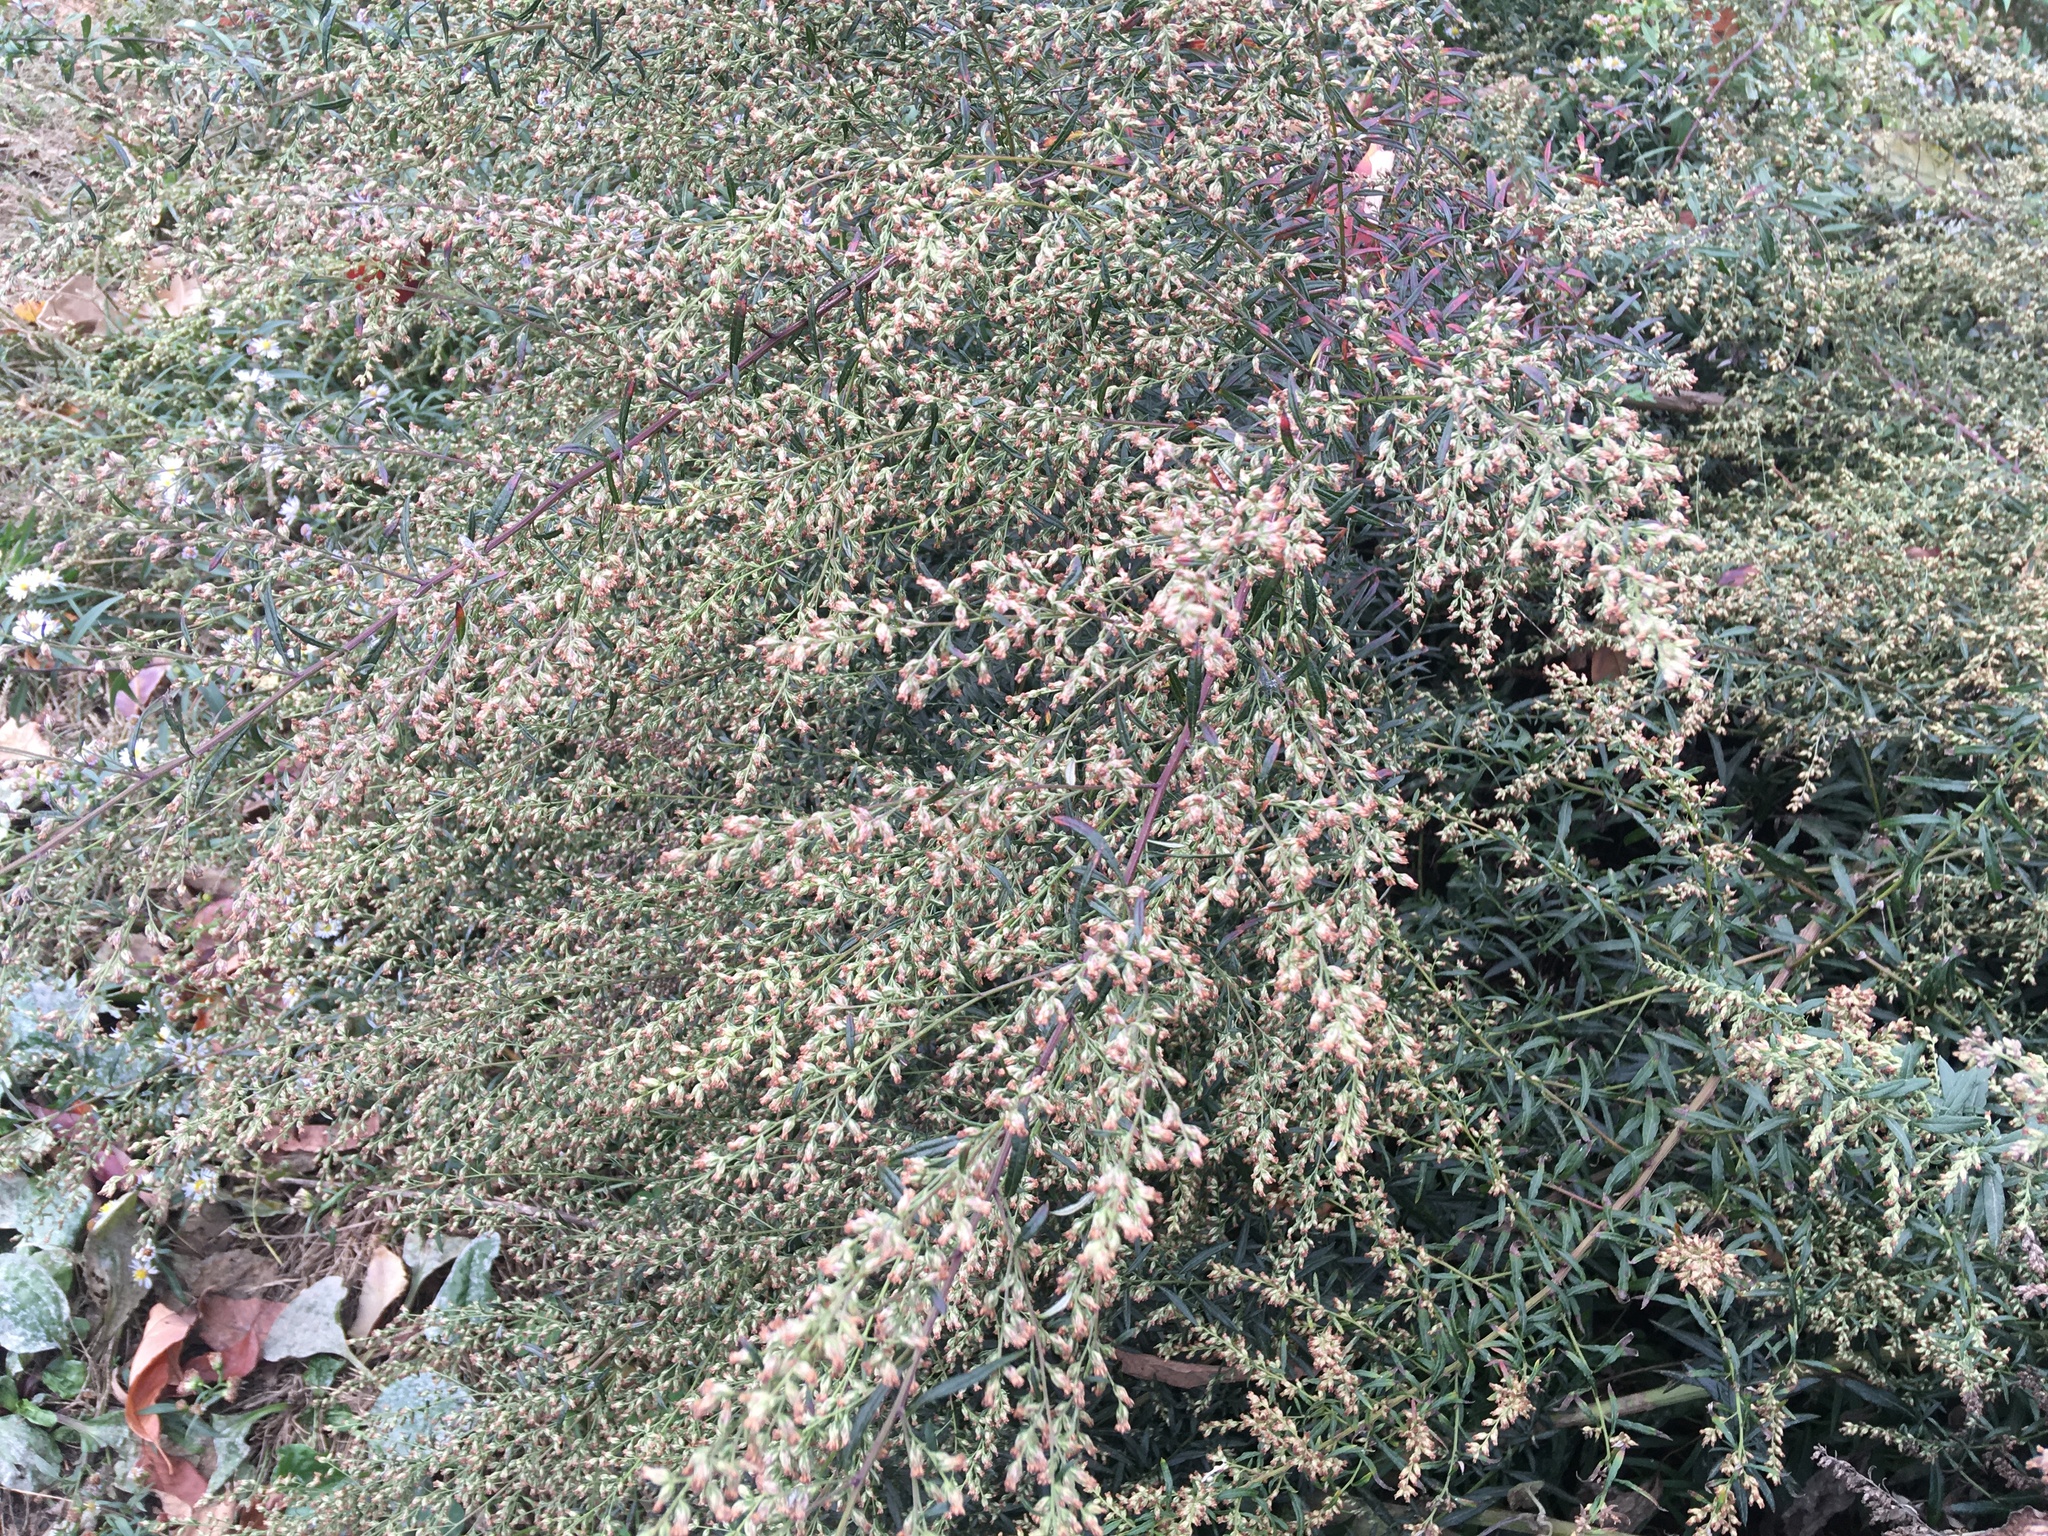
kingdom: Plantae
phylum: Tracheophyta
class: Magnoliopsida
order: Asterales
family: Asteraceae
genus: Artemisia
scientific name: Artemisia vulgaris
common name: Mugwort
